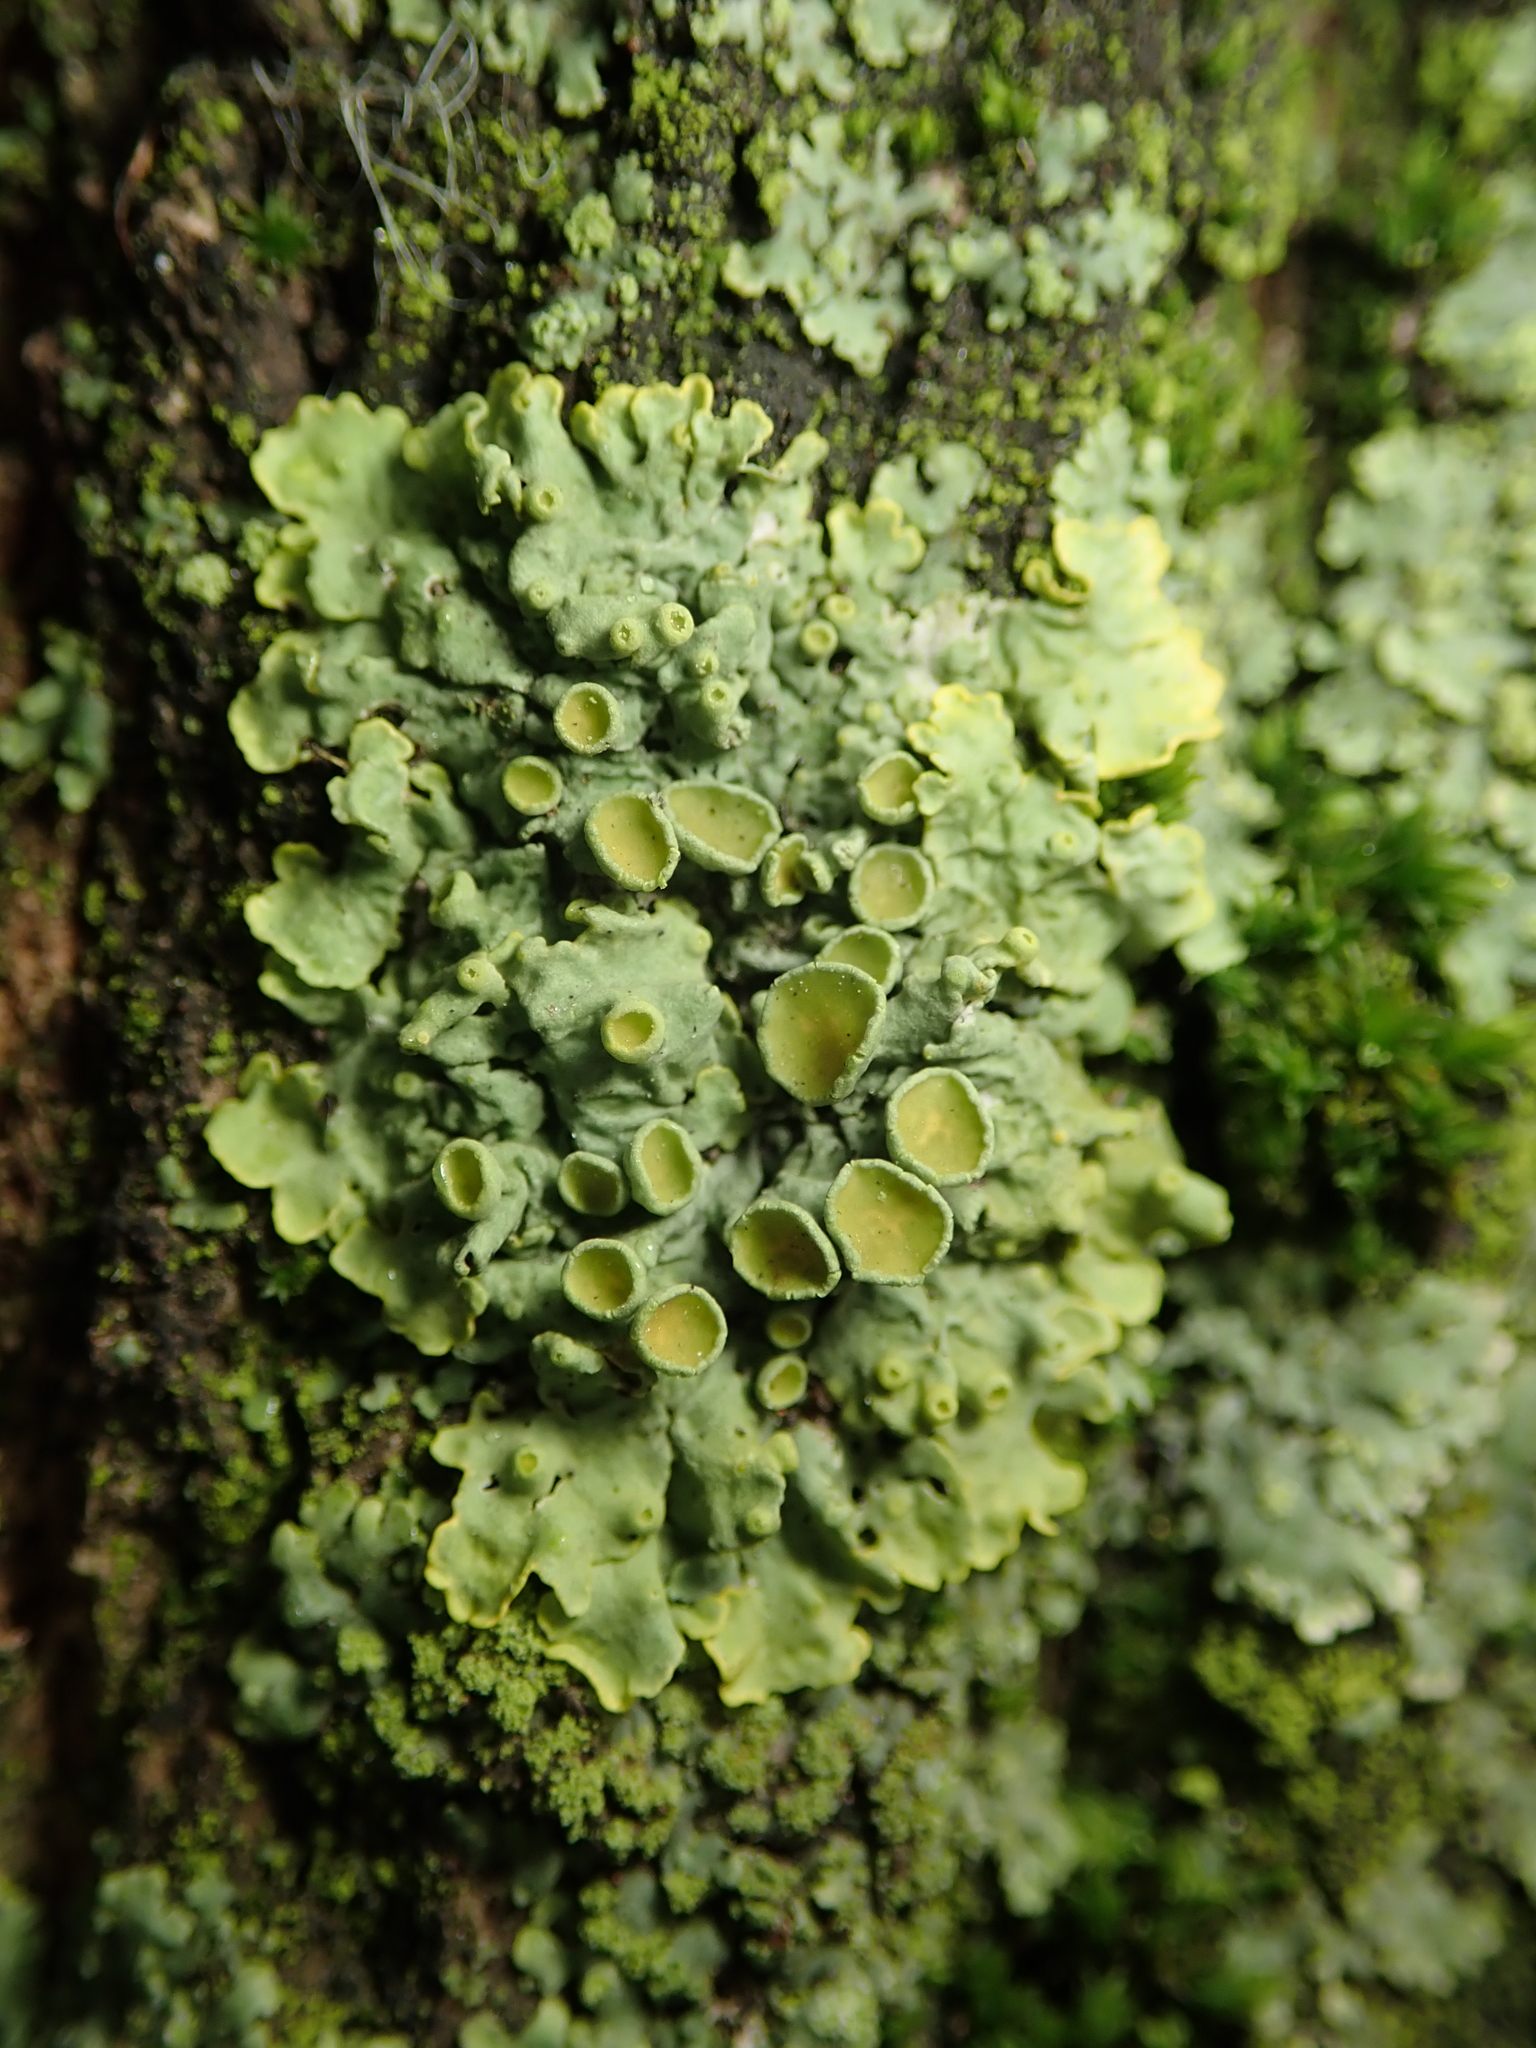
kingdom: Fungi
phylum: Ascomycota
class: Lecanoromycetes
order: Teloschistales
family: Teloschistaceae
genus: Xanthoria
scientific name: Xanthoria parietina
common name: Common orange lichen
